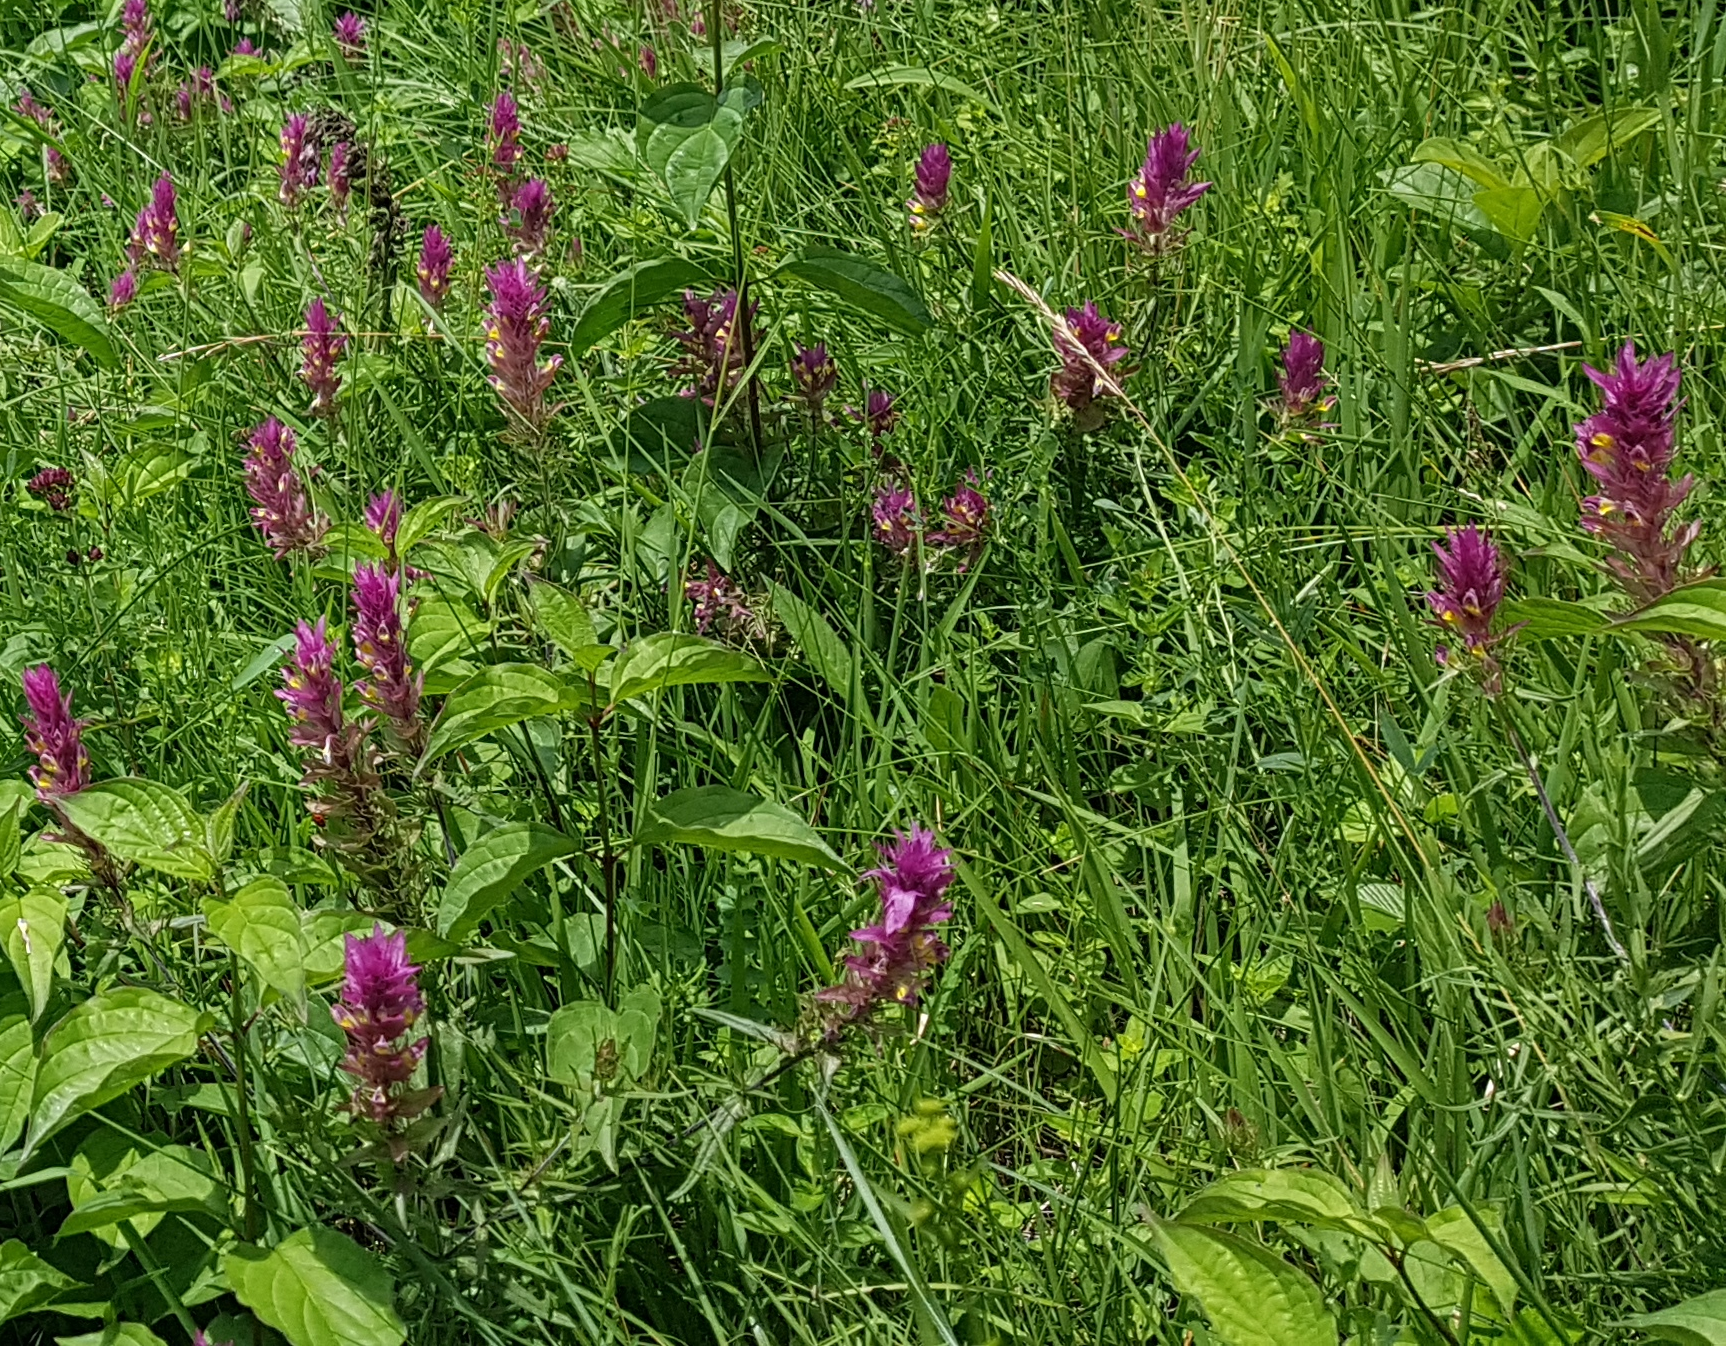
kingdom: Plantae
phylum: Tracheophyta
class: Magnoliopsida
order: Lamiales
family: Orobanchaceae
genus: Melampyrum
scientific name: Melampyrum arvense
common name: Field cow-wheat
